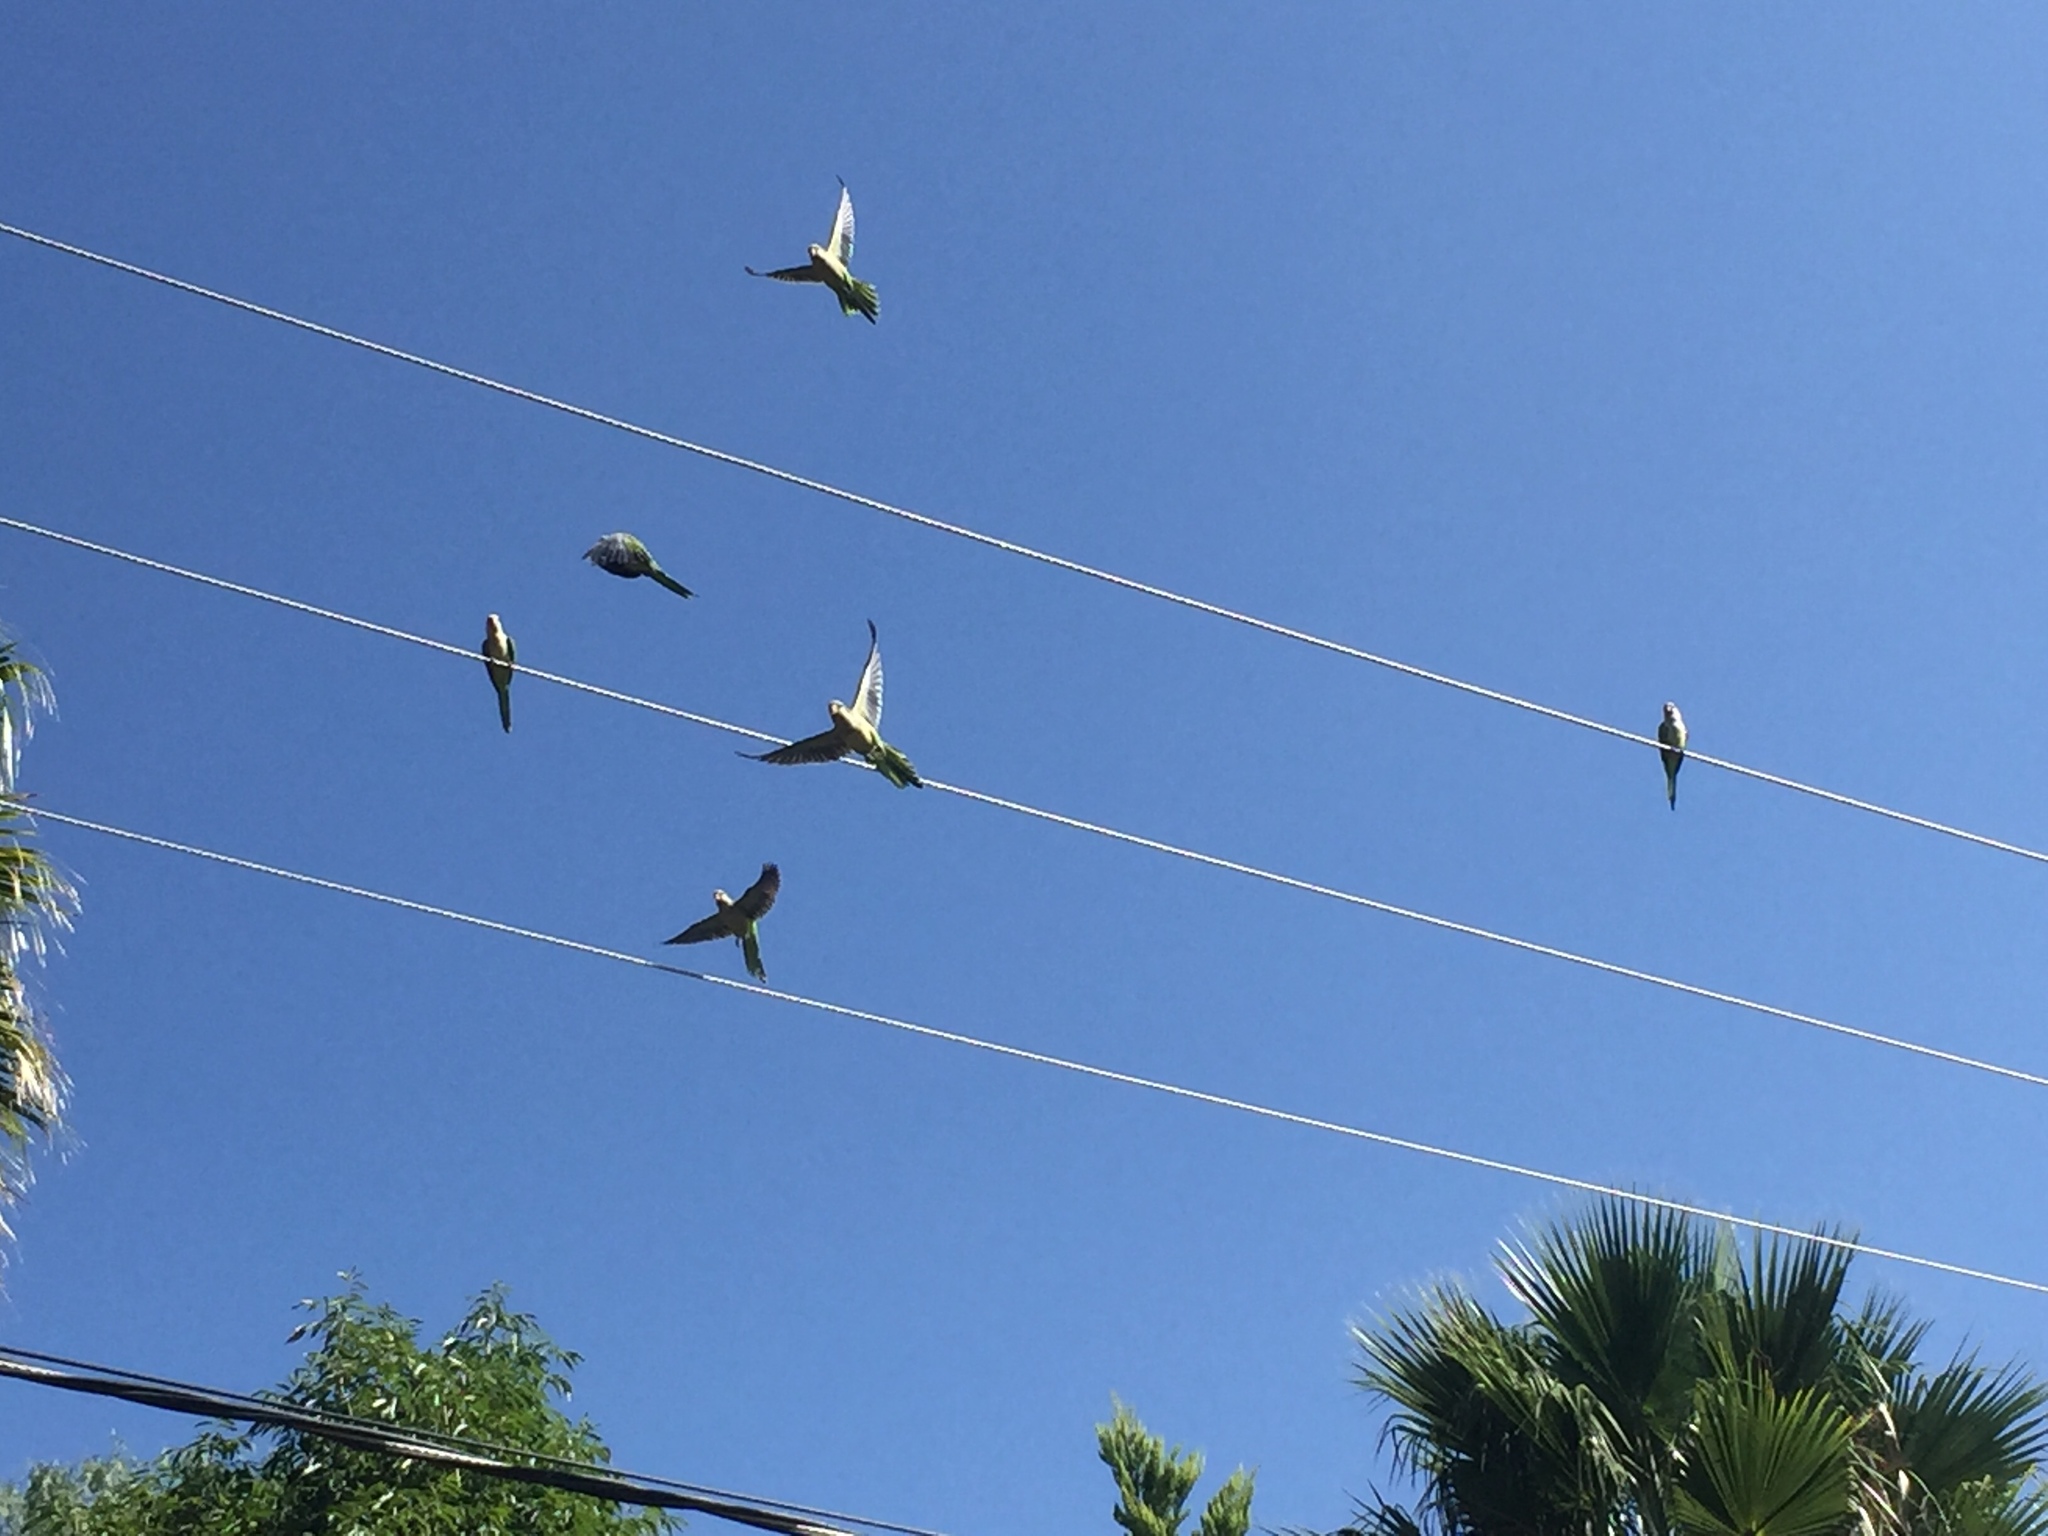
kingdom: Animalia
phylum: Chordata
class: Aves
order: Psittaciformes
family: Psittacidae
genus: Myiopsitta
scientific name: Myiopsitta monachus
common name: Monk parakeet
